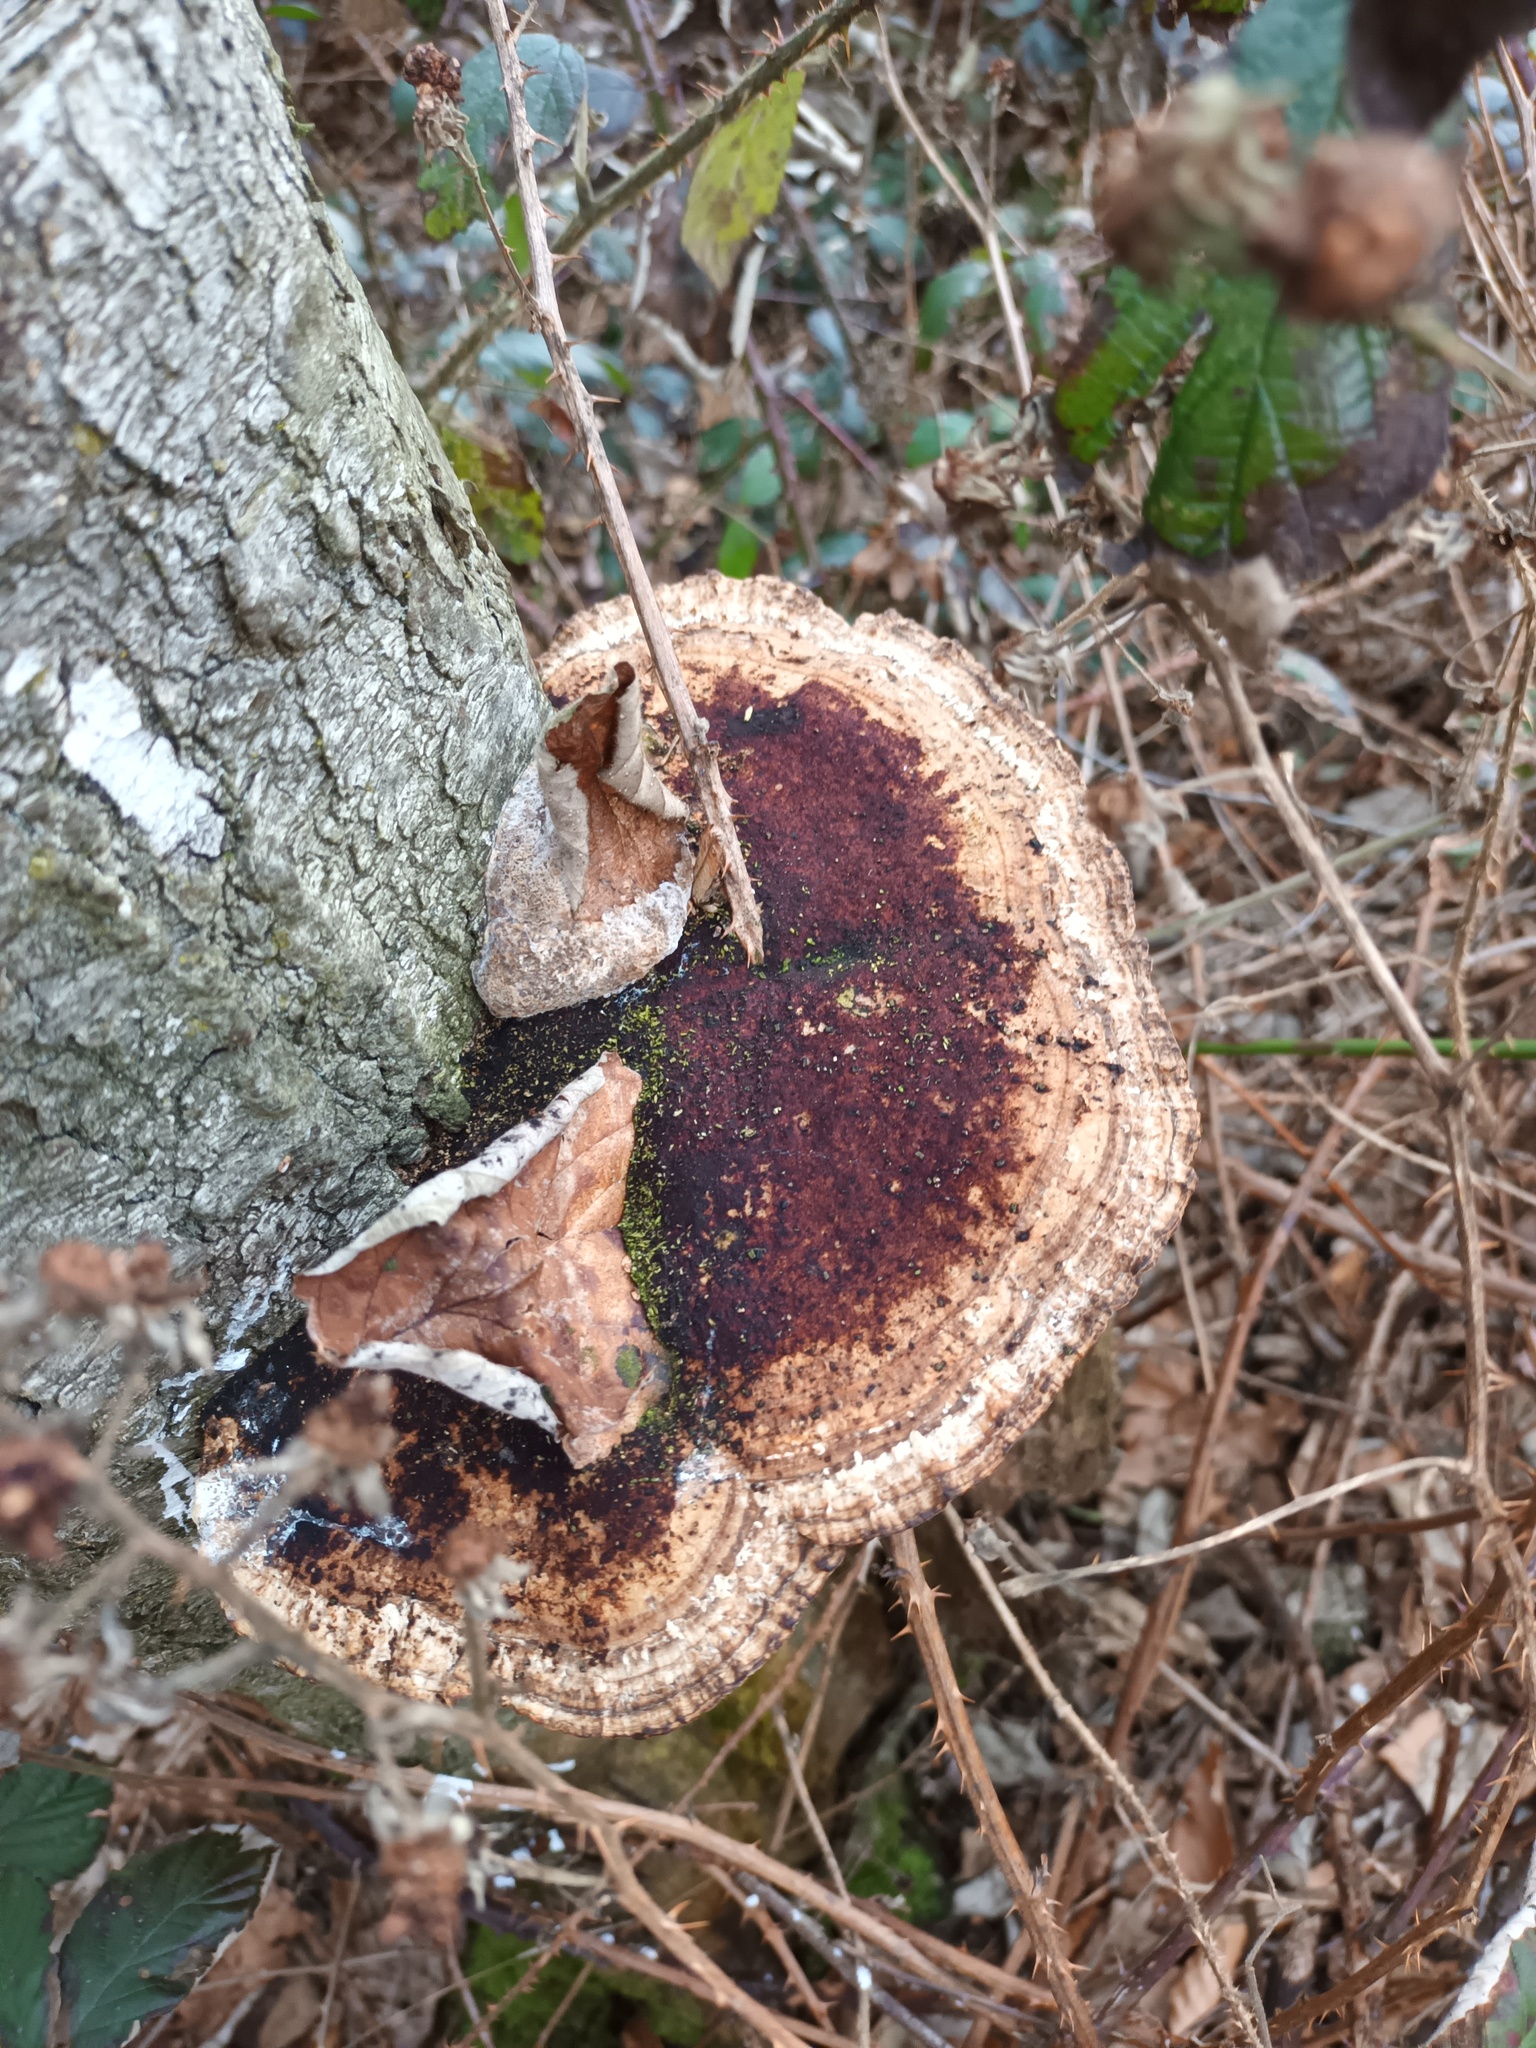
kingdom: Fungi
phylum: Basidiomycota
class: Agaricomycetes
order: Polyporales
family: Polyporaceae
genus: Daedaleopsis
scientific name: Daedaleopsis confragosa
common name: Blushing bracket
